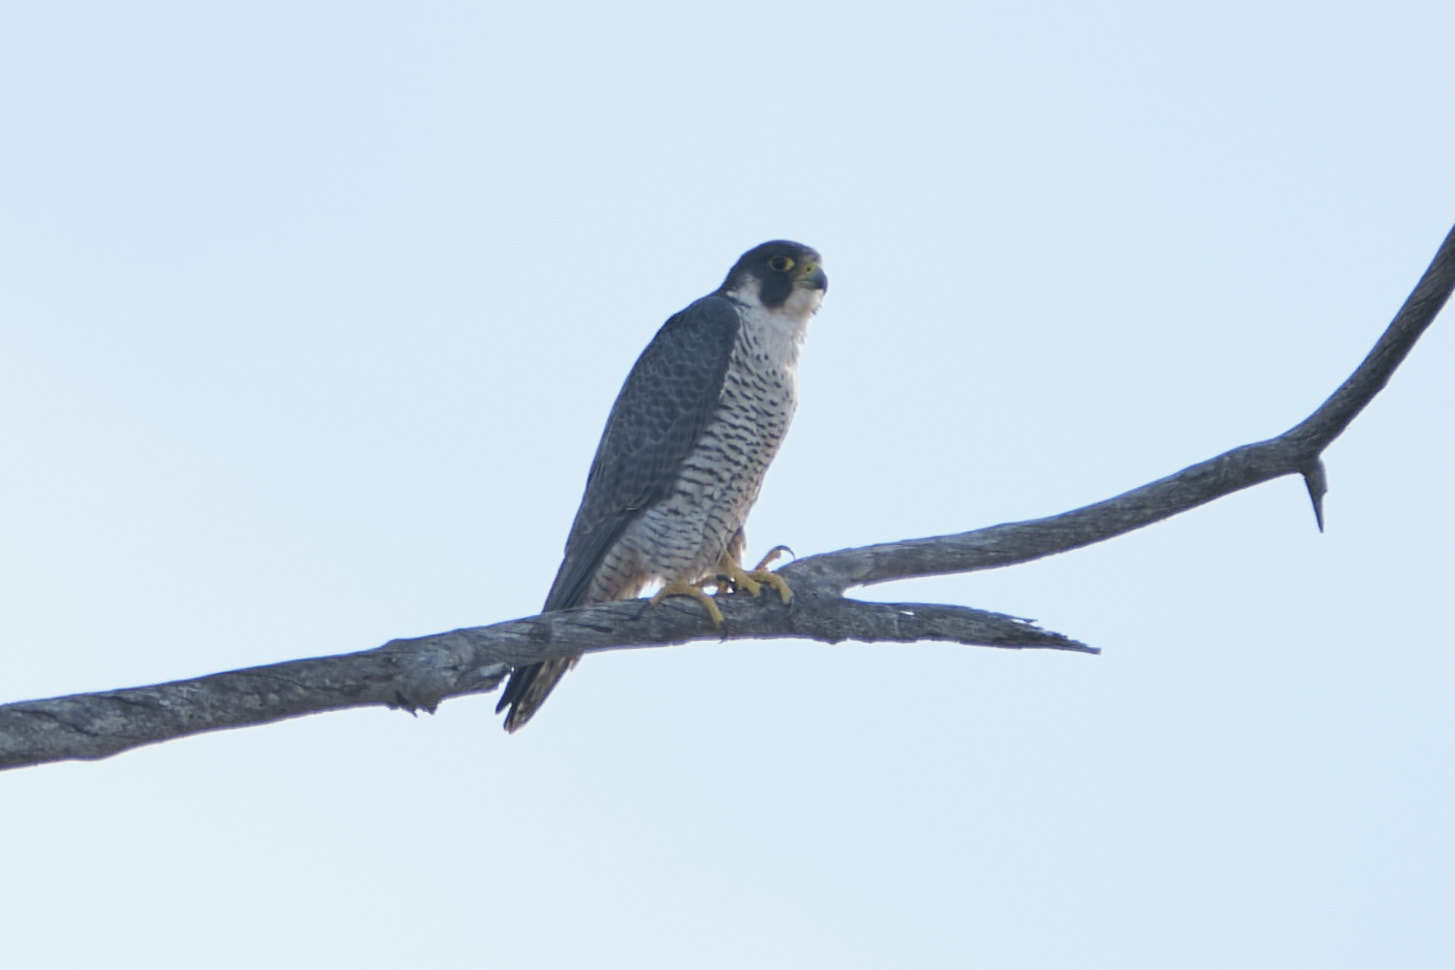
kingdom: Animalia
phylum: Chordata
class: Aves
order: Falconiformes
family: Falconidae
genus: Falco
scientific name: Falco peregrinus
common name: Peregrine falcon
